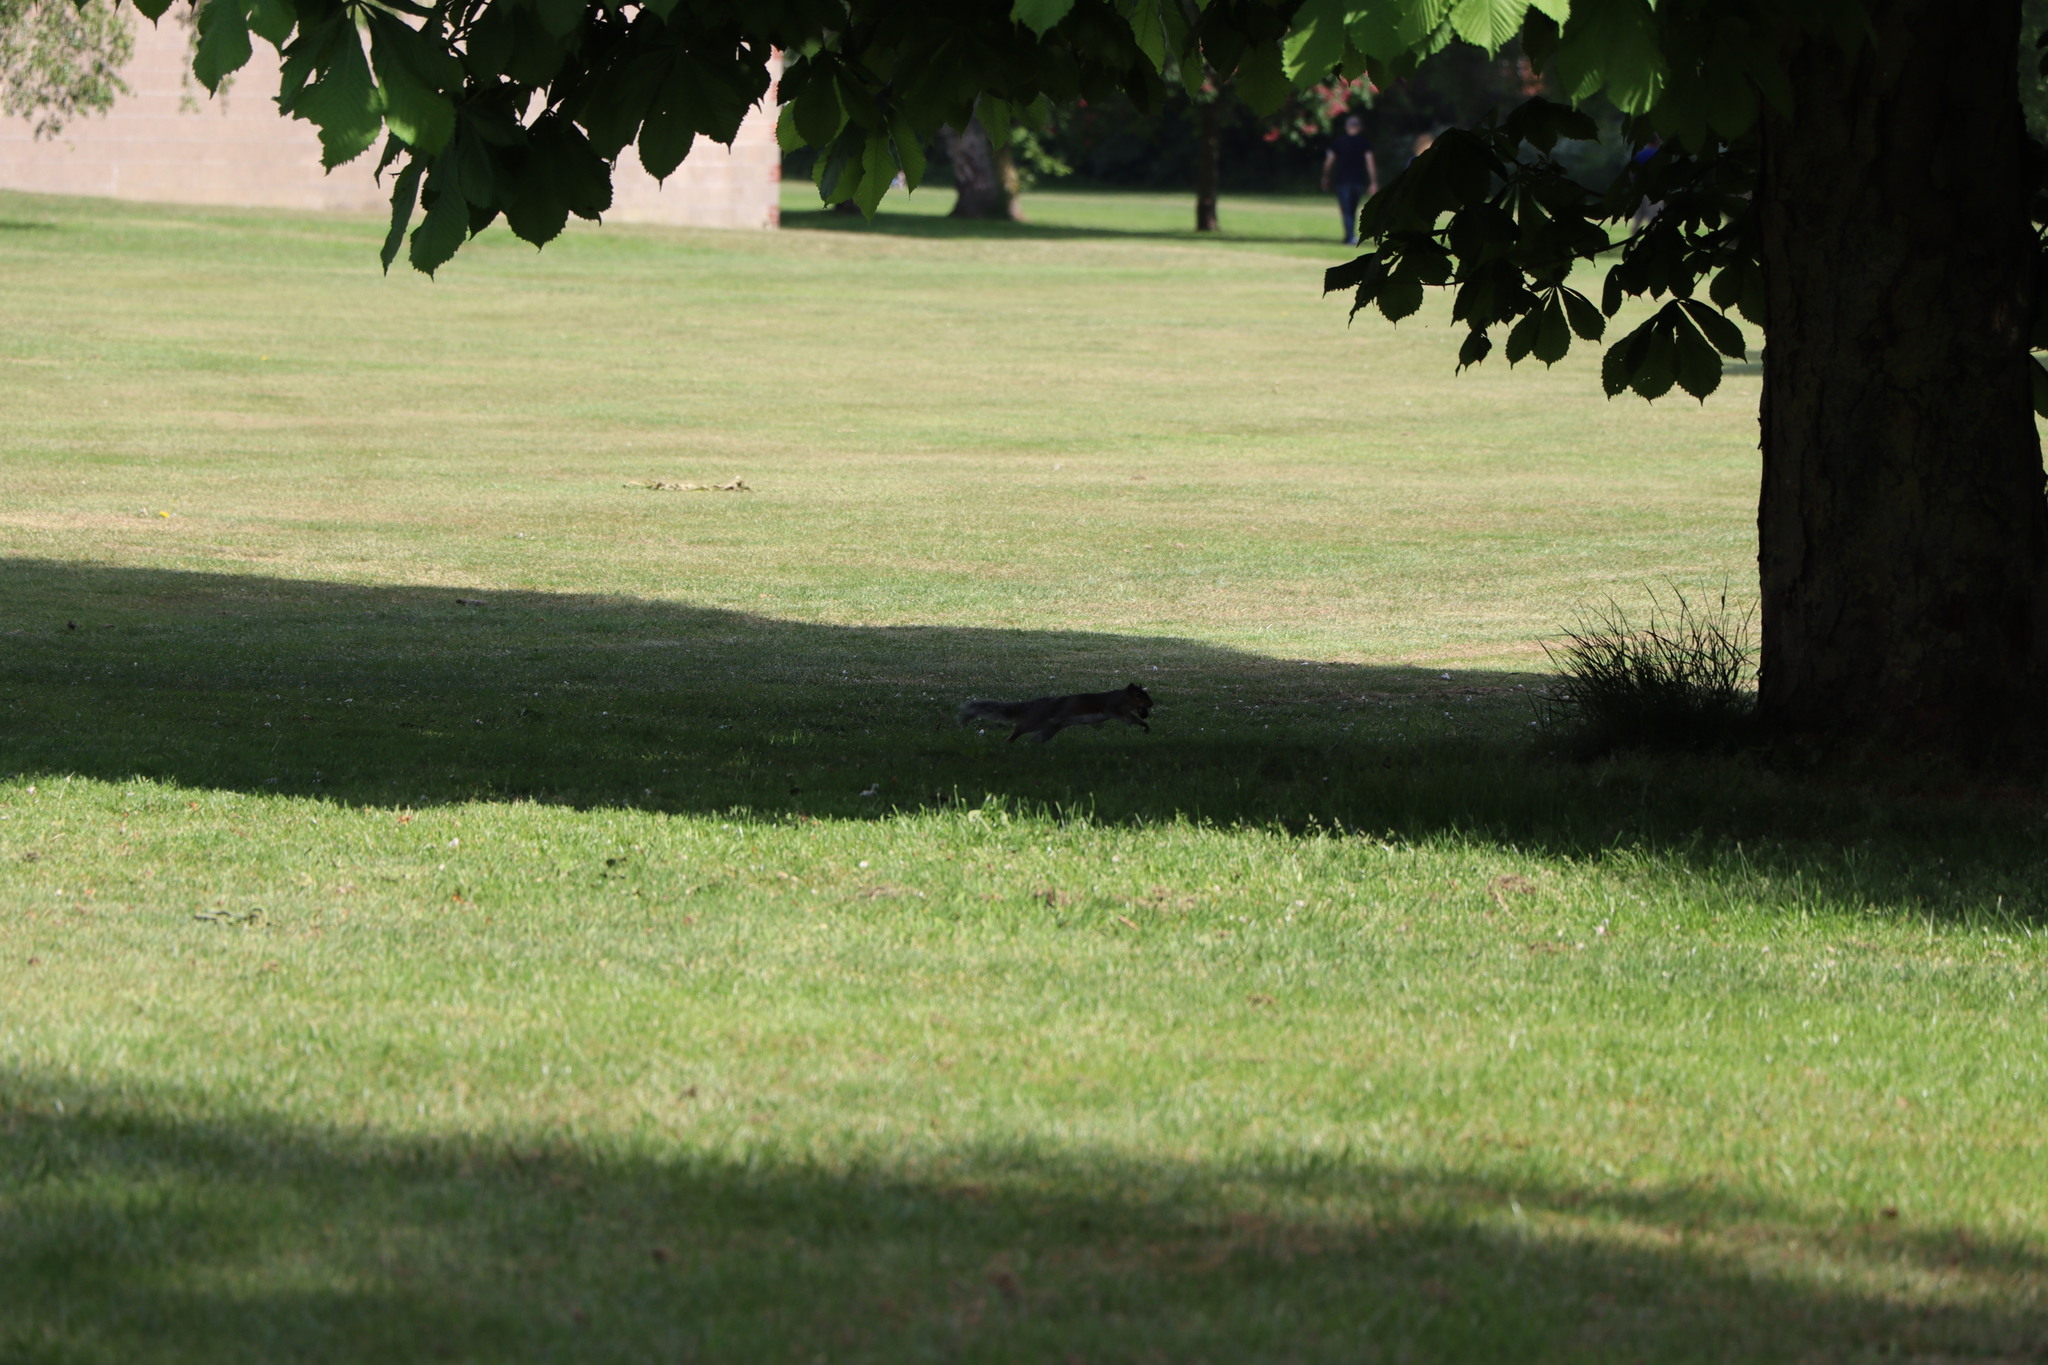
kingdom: Animalia
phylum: Chordata
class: Mammalia
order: Rodentia
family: Sciuridae
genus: Sciurus
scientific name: Sciurus carolinensis
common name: Eastern gray squirrel
